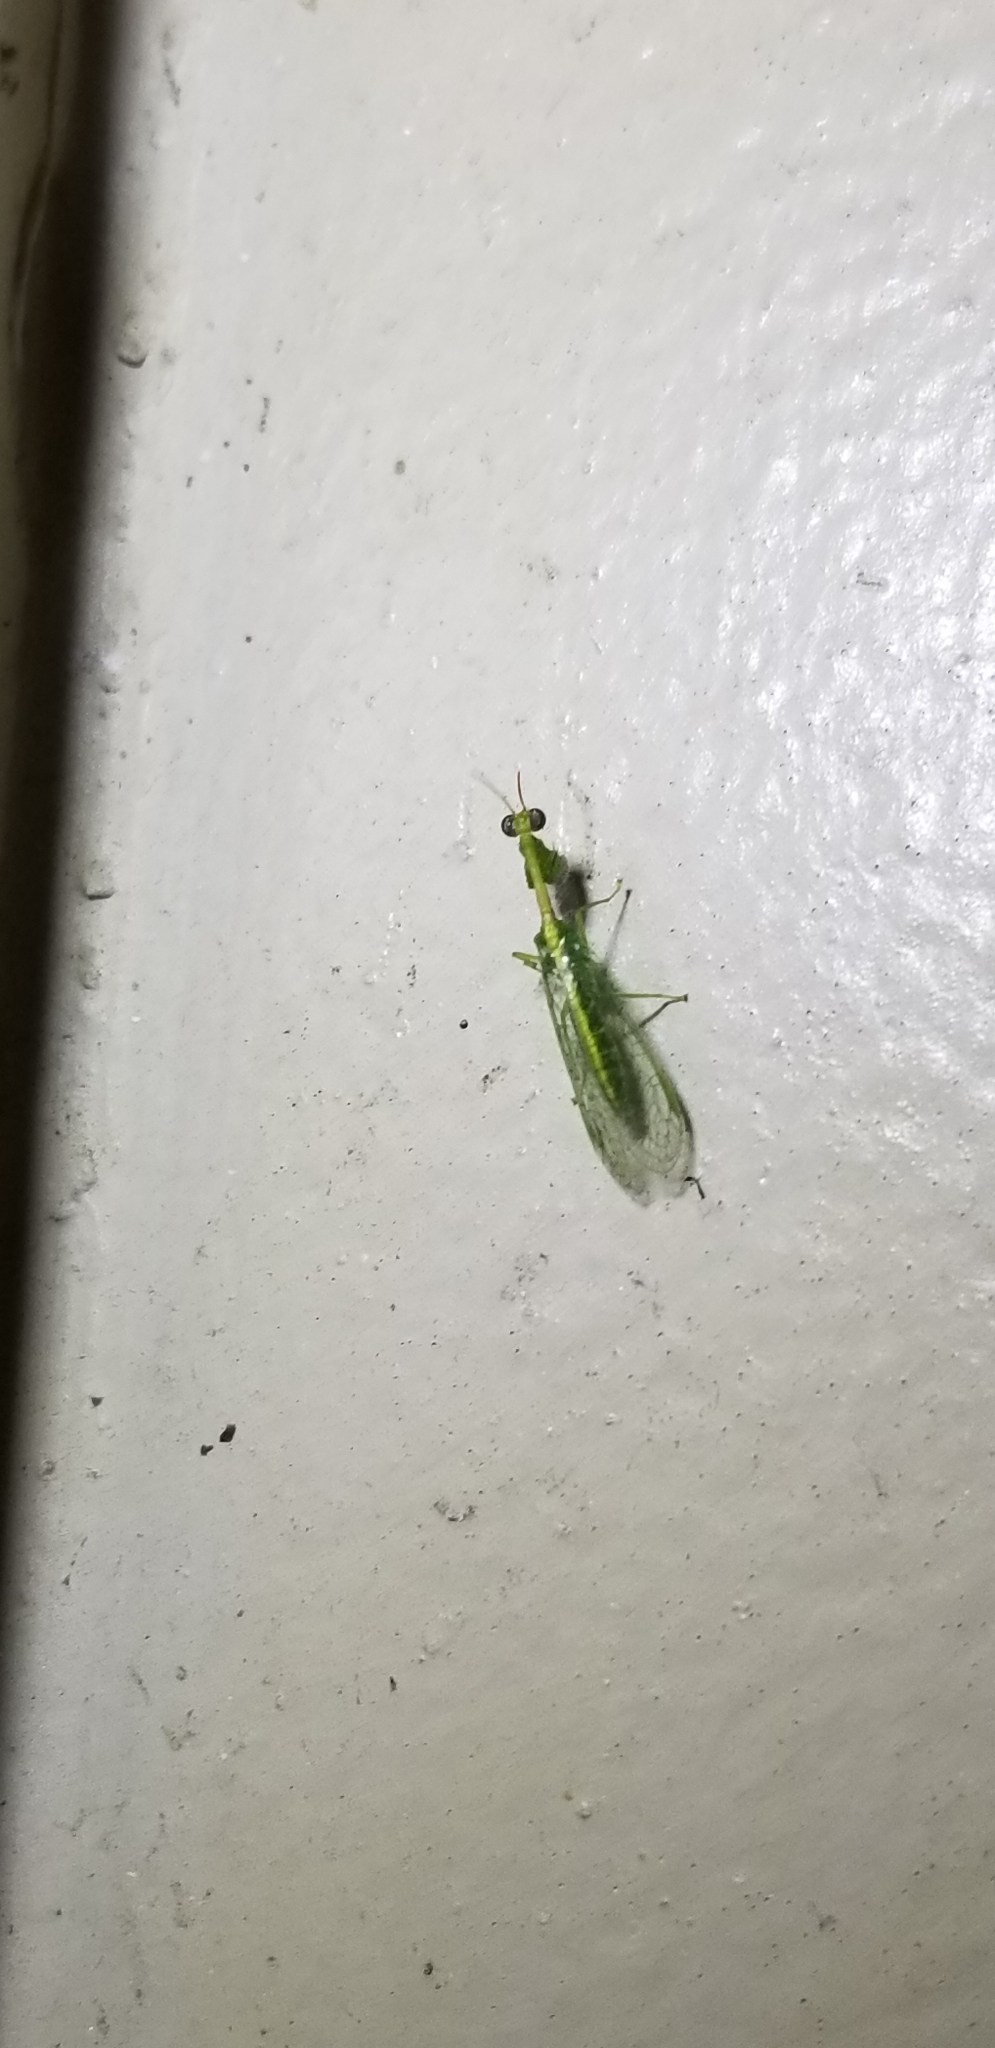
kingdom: Animalia
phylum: Arthropoda
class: Insecta
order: Neuroptera
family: Mantispidae
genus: Zeugomantispa
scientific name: Zeugomantispa minuta
